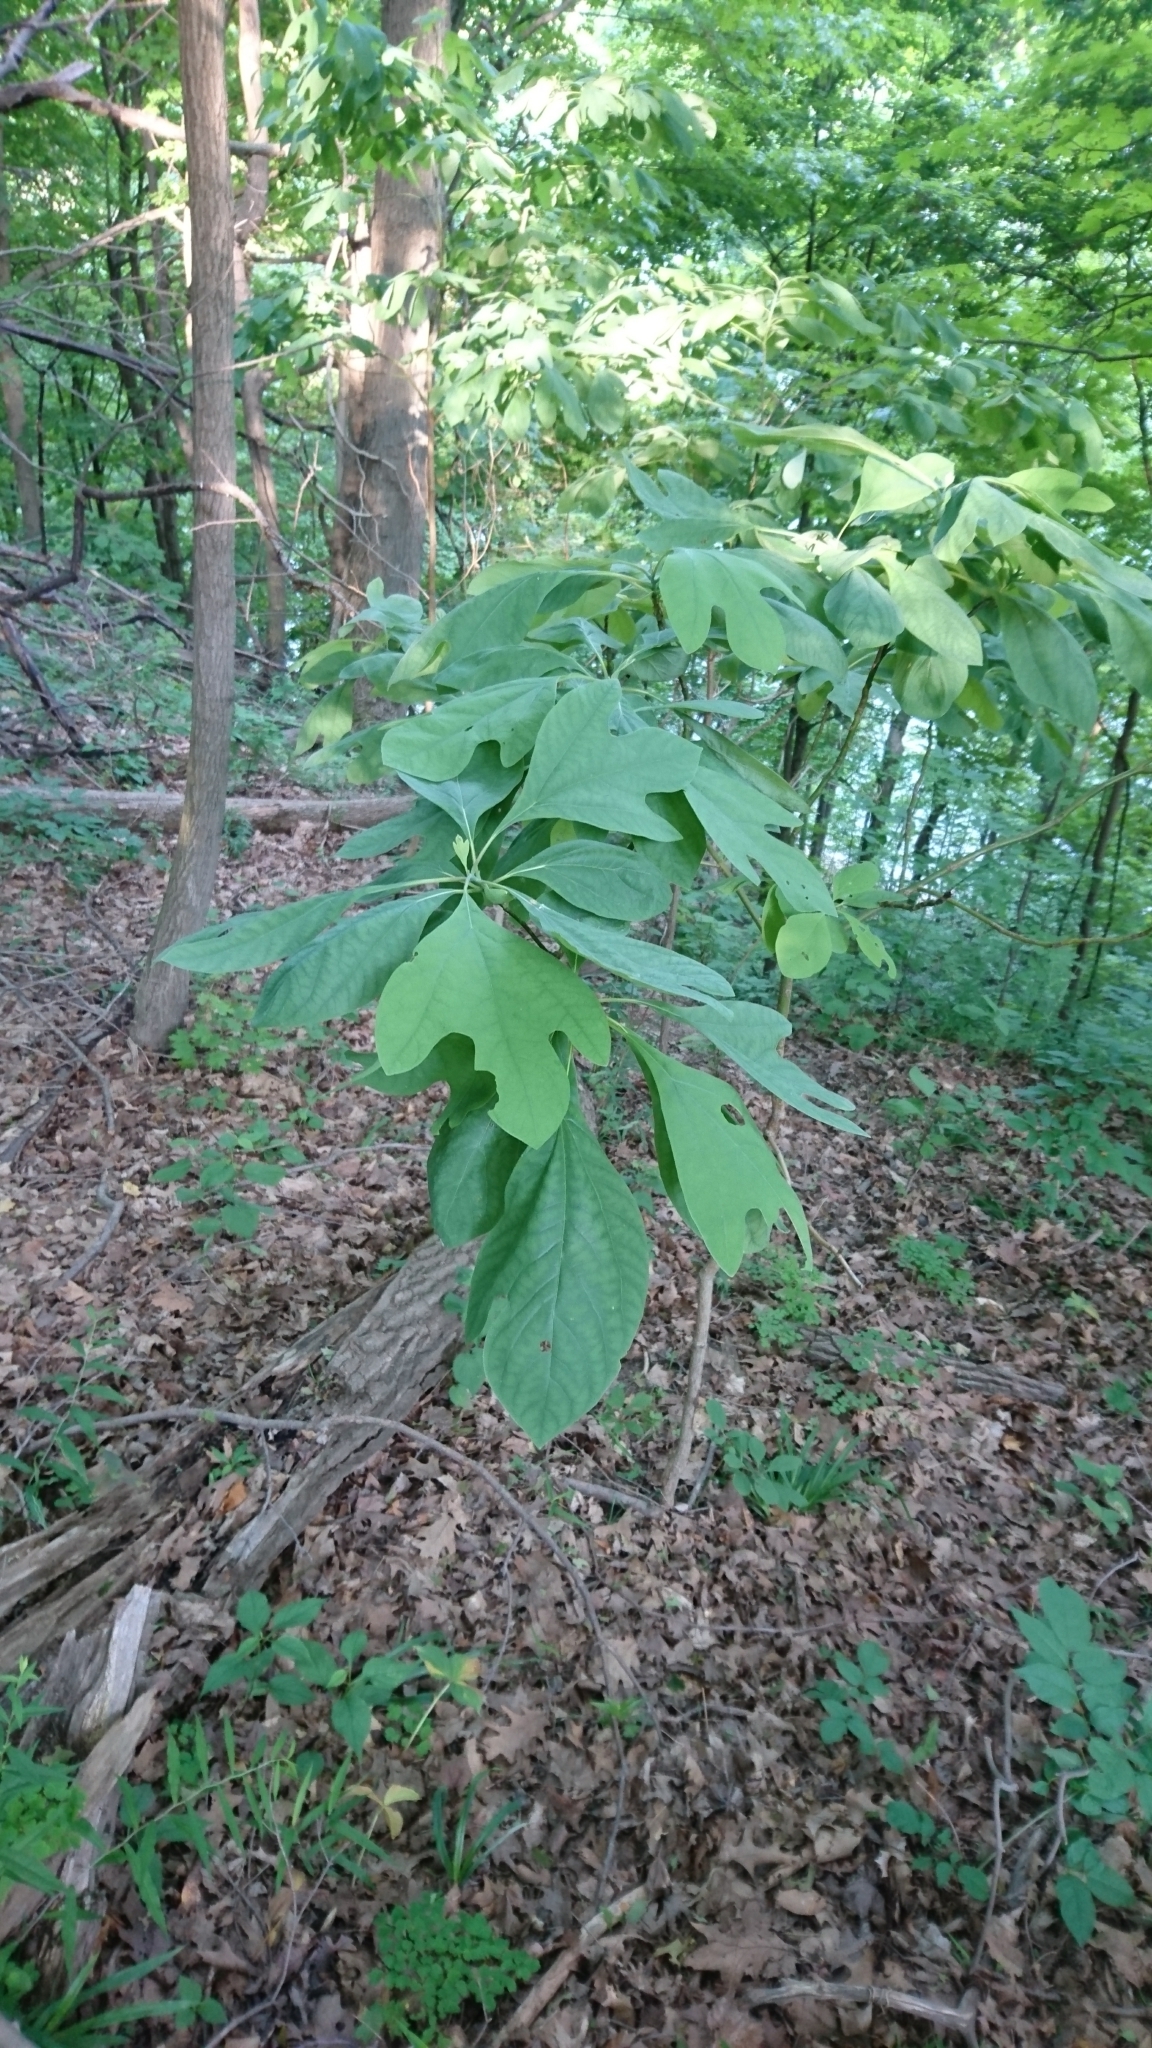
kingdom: Plantae
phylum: Tracheophyta
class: Magnoliopsida
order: Laurales
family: Lauraceae
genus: Sassafras
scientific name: Sassafras albidum
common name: Sassafras
